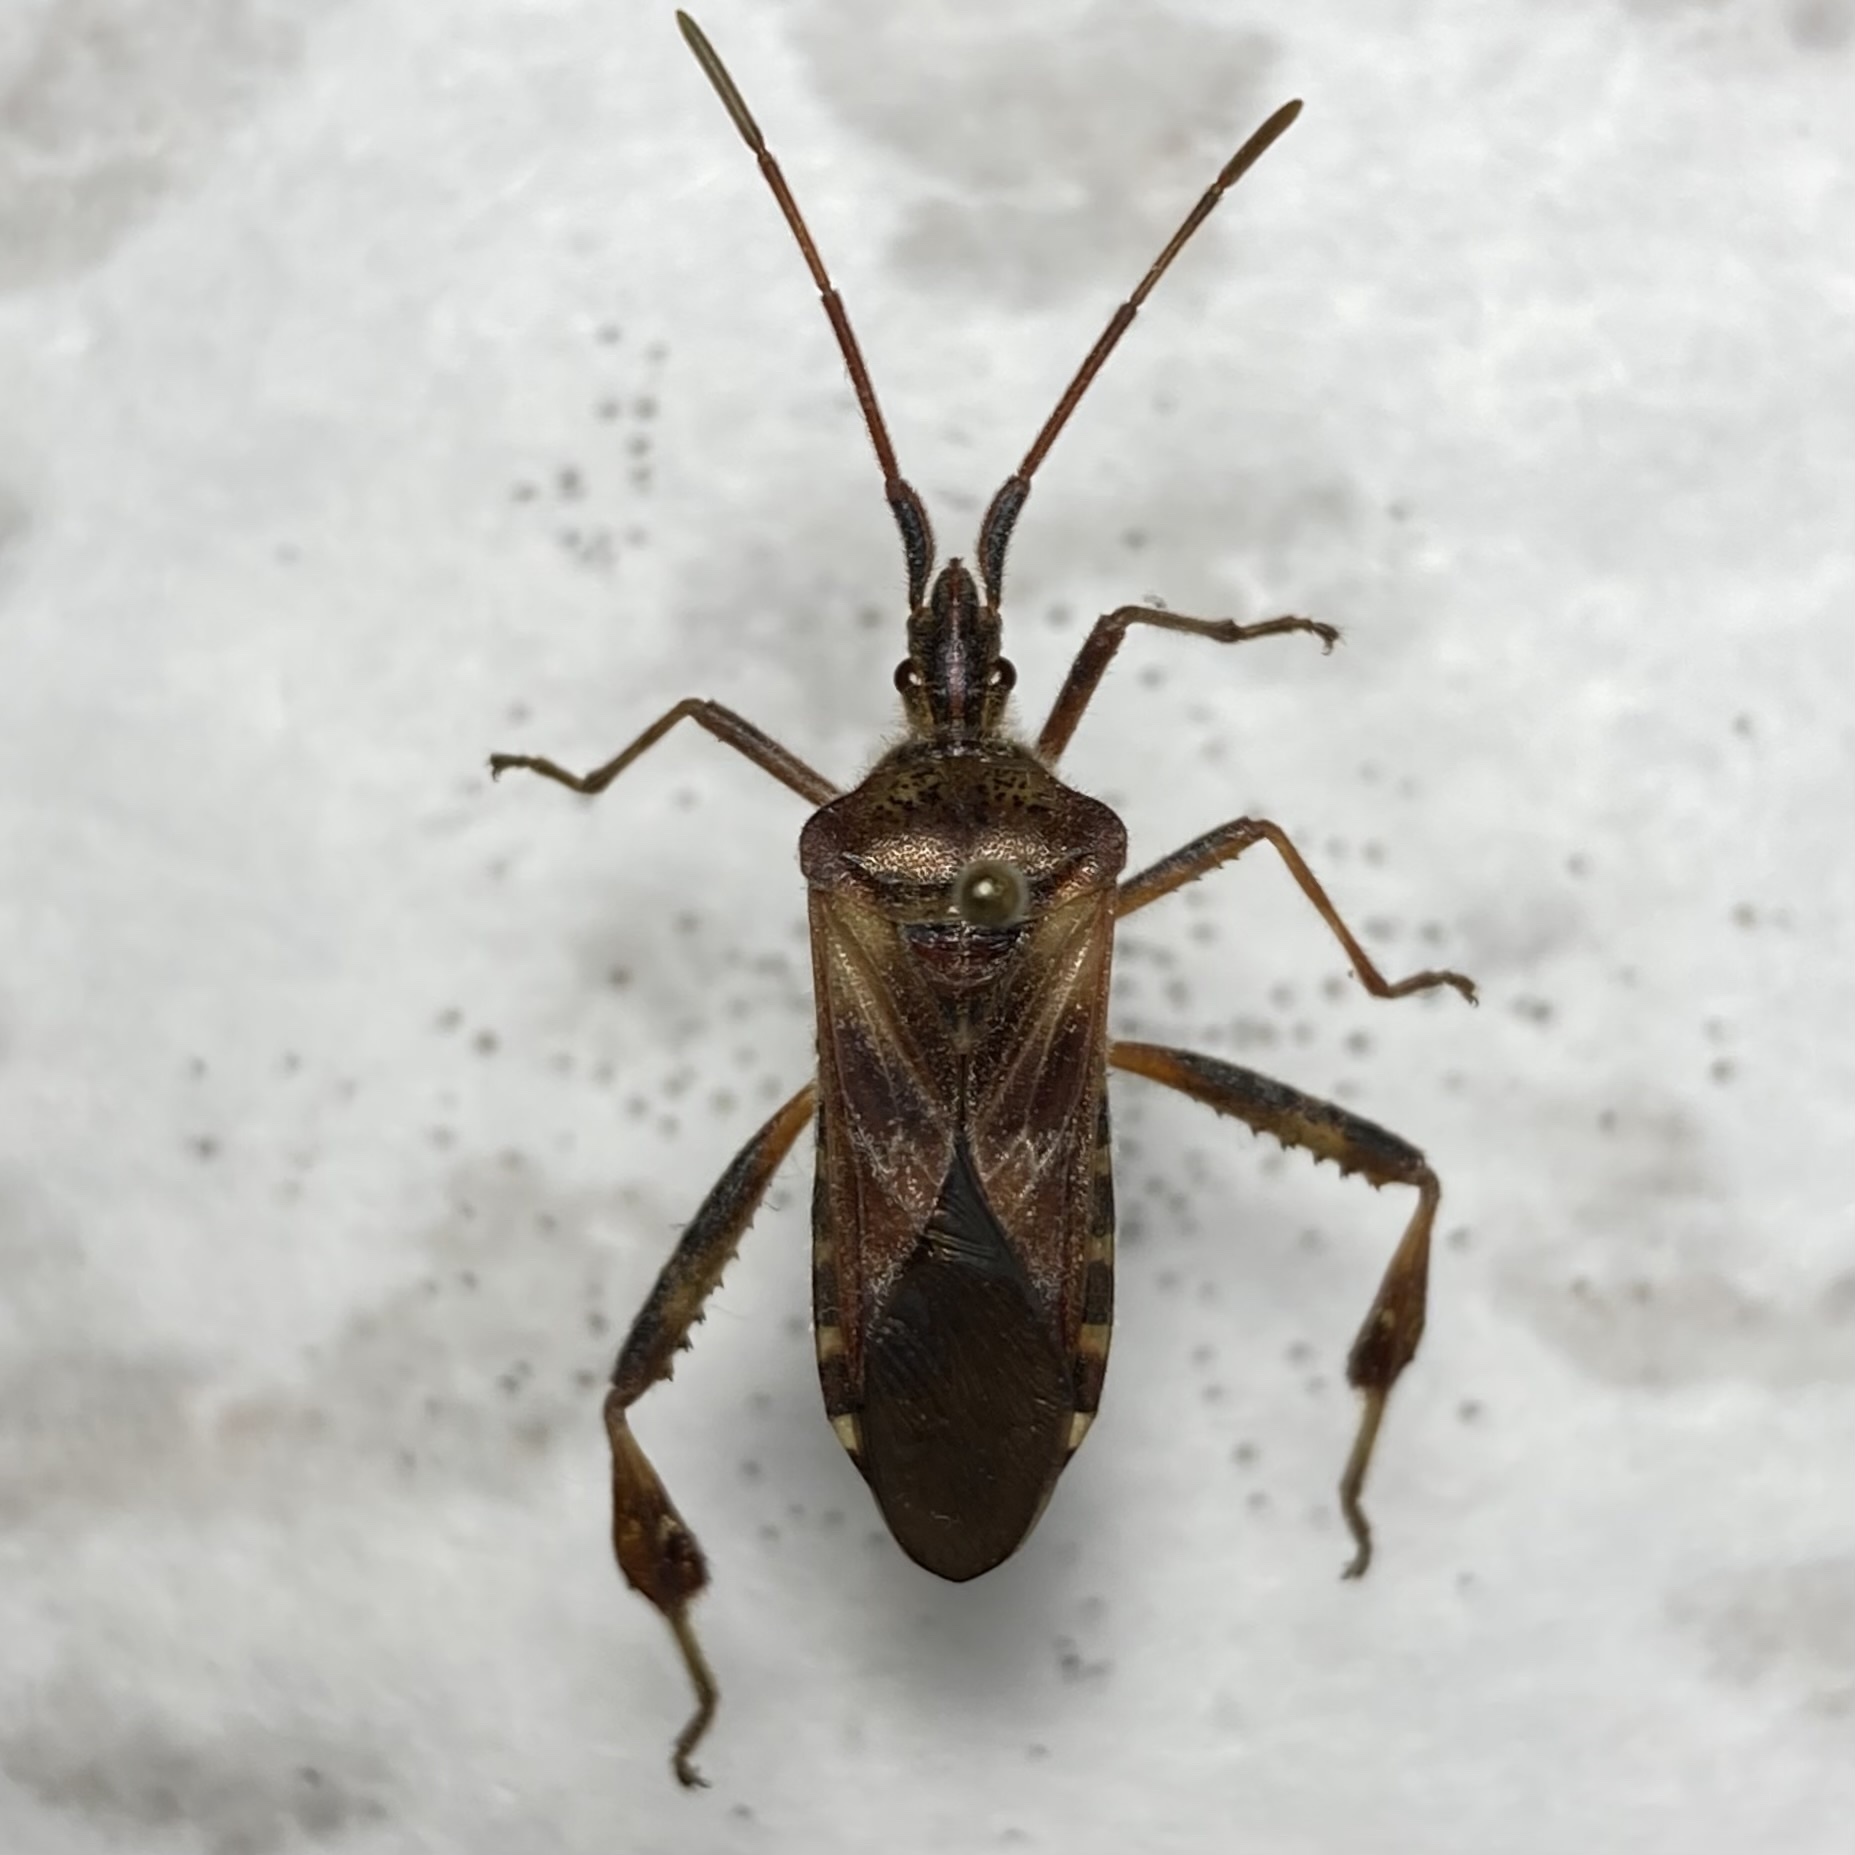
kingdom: Animalia
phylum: Arthropoda
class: Insecta
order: Hemiptera
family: Coreidae
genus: Leptoglossus
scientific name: Leptoglossus occidentalis
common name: Western conifer-seed bug
